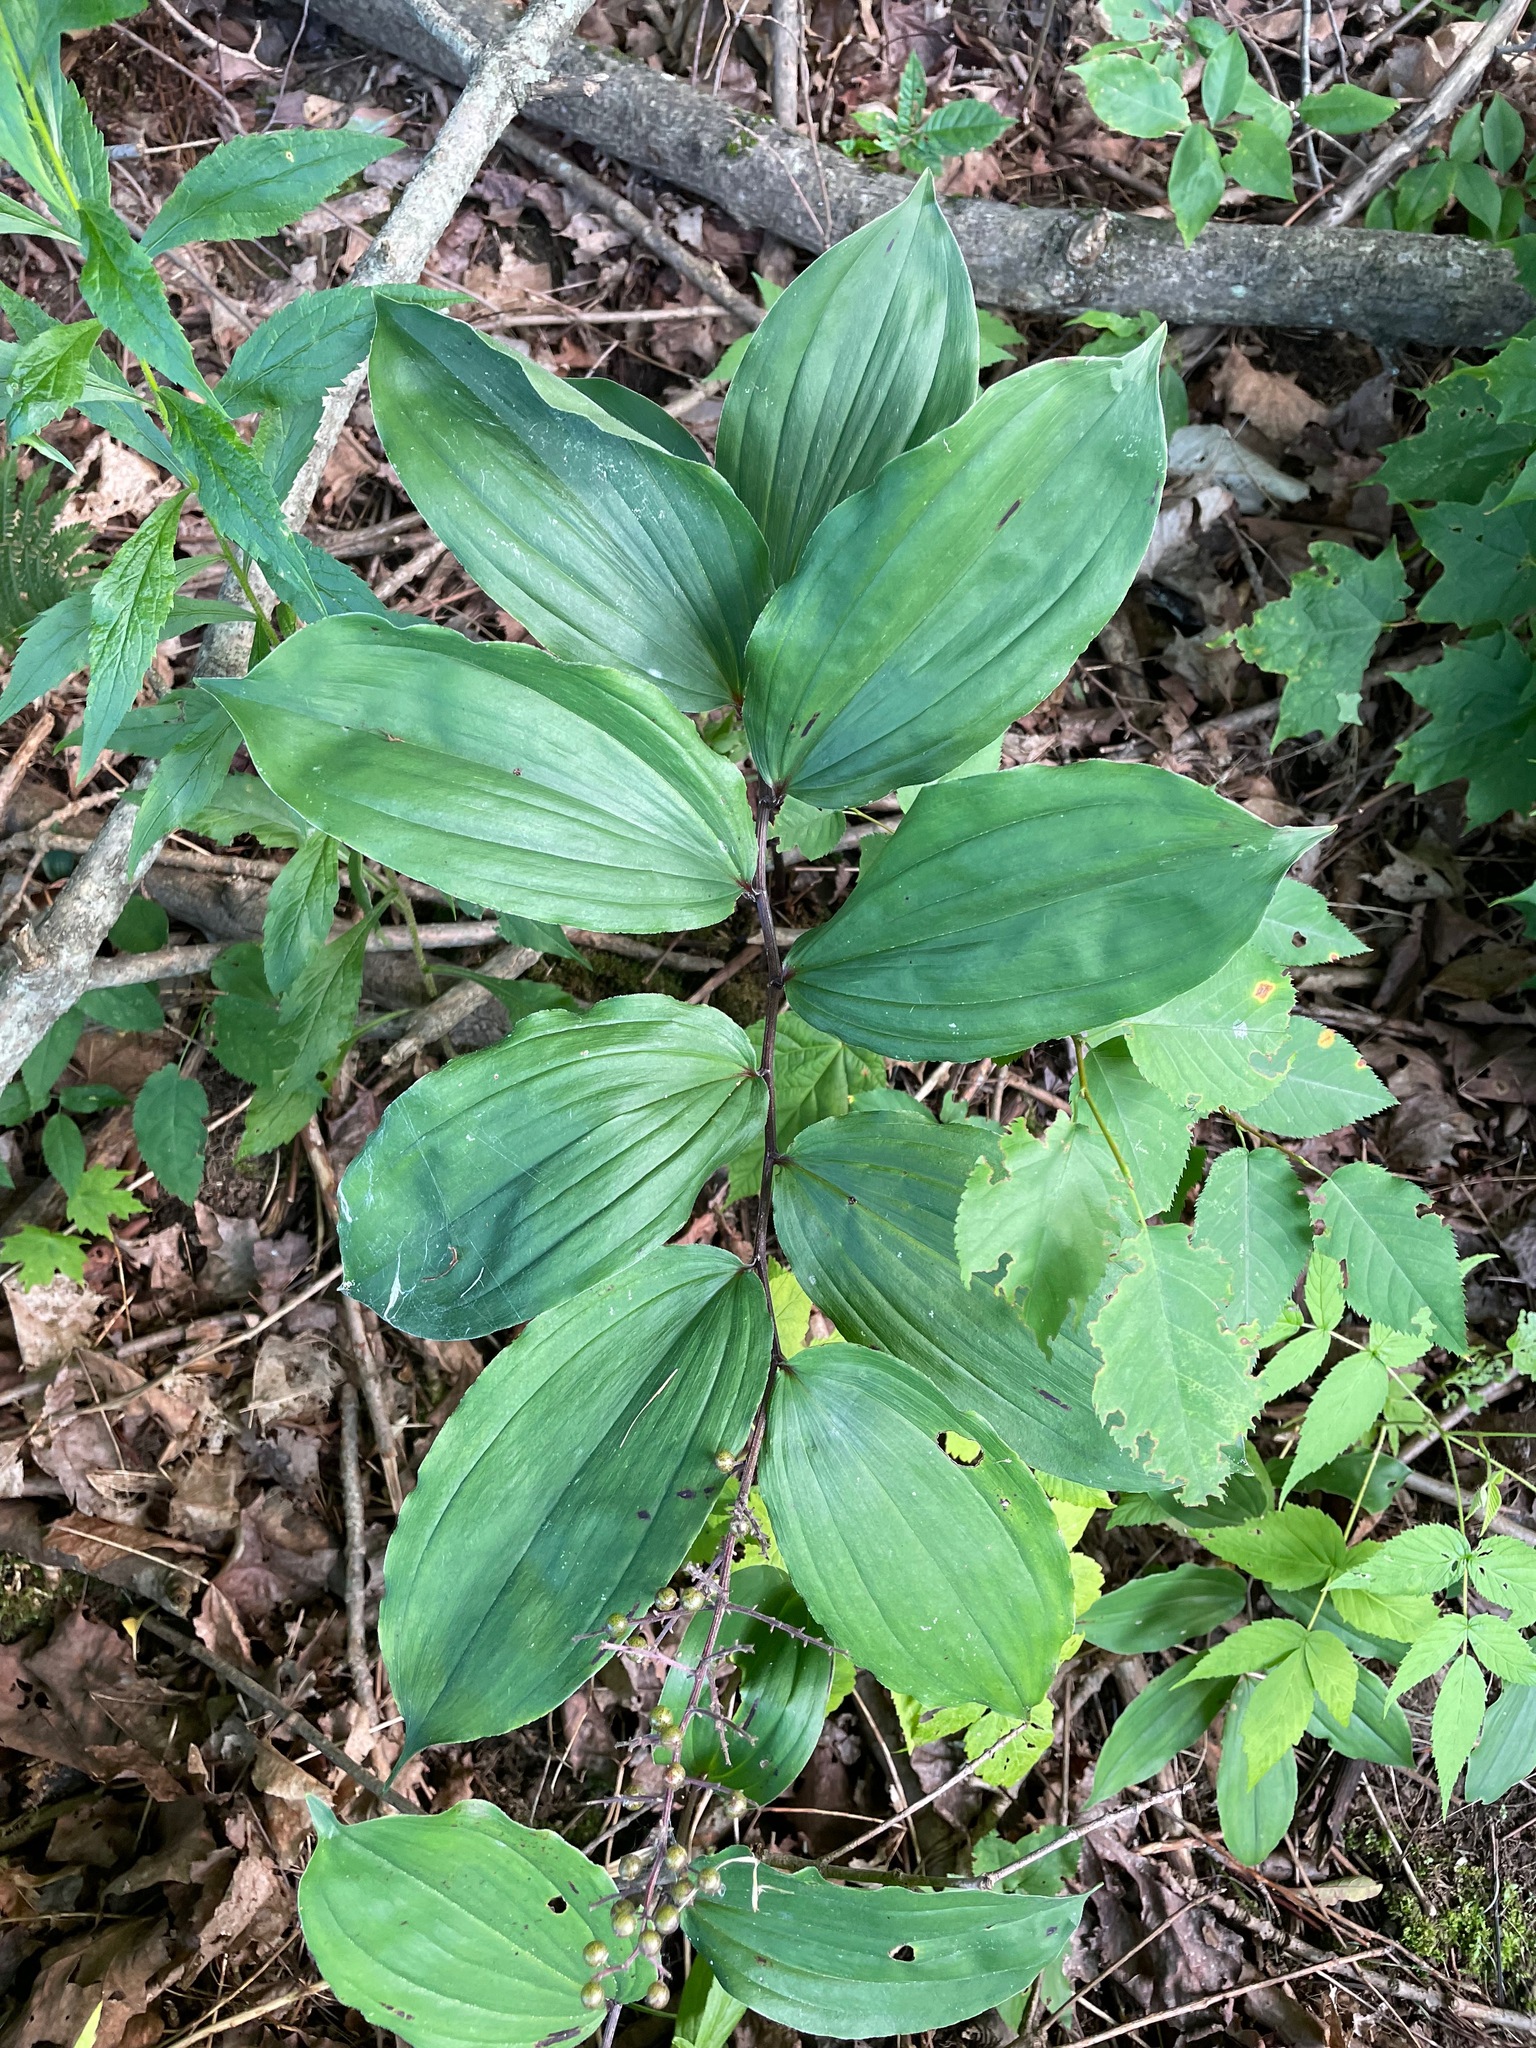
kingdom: Plantae
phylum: Tracheophyta
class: Liliopsida
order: Asparagales
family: Asparagaceae
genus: Maianthemum
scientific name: Maianthemum racemosum
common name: False spikenard
